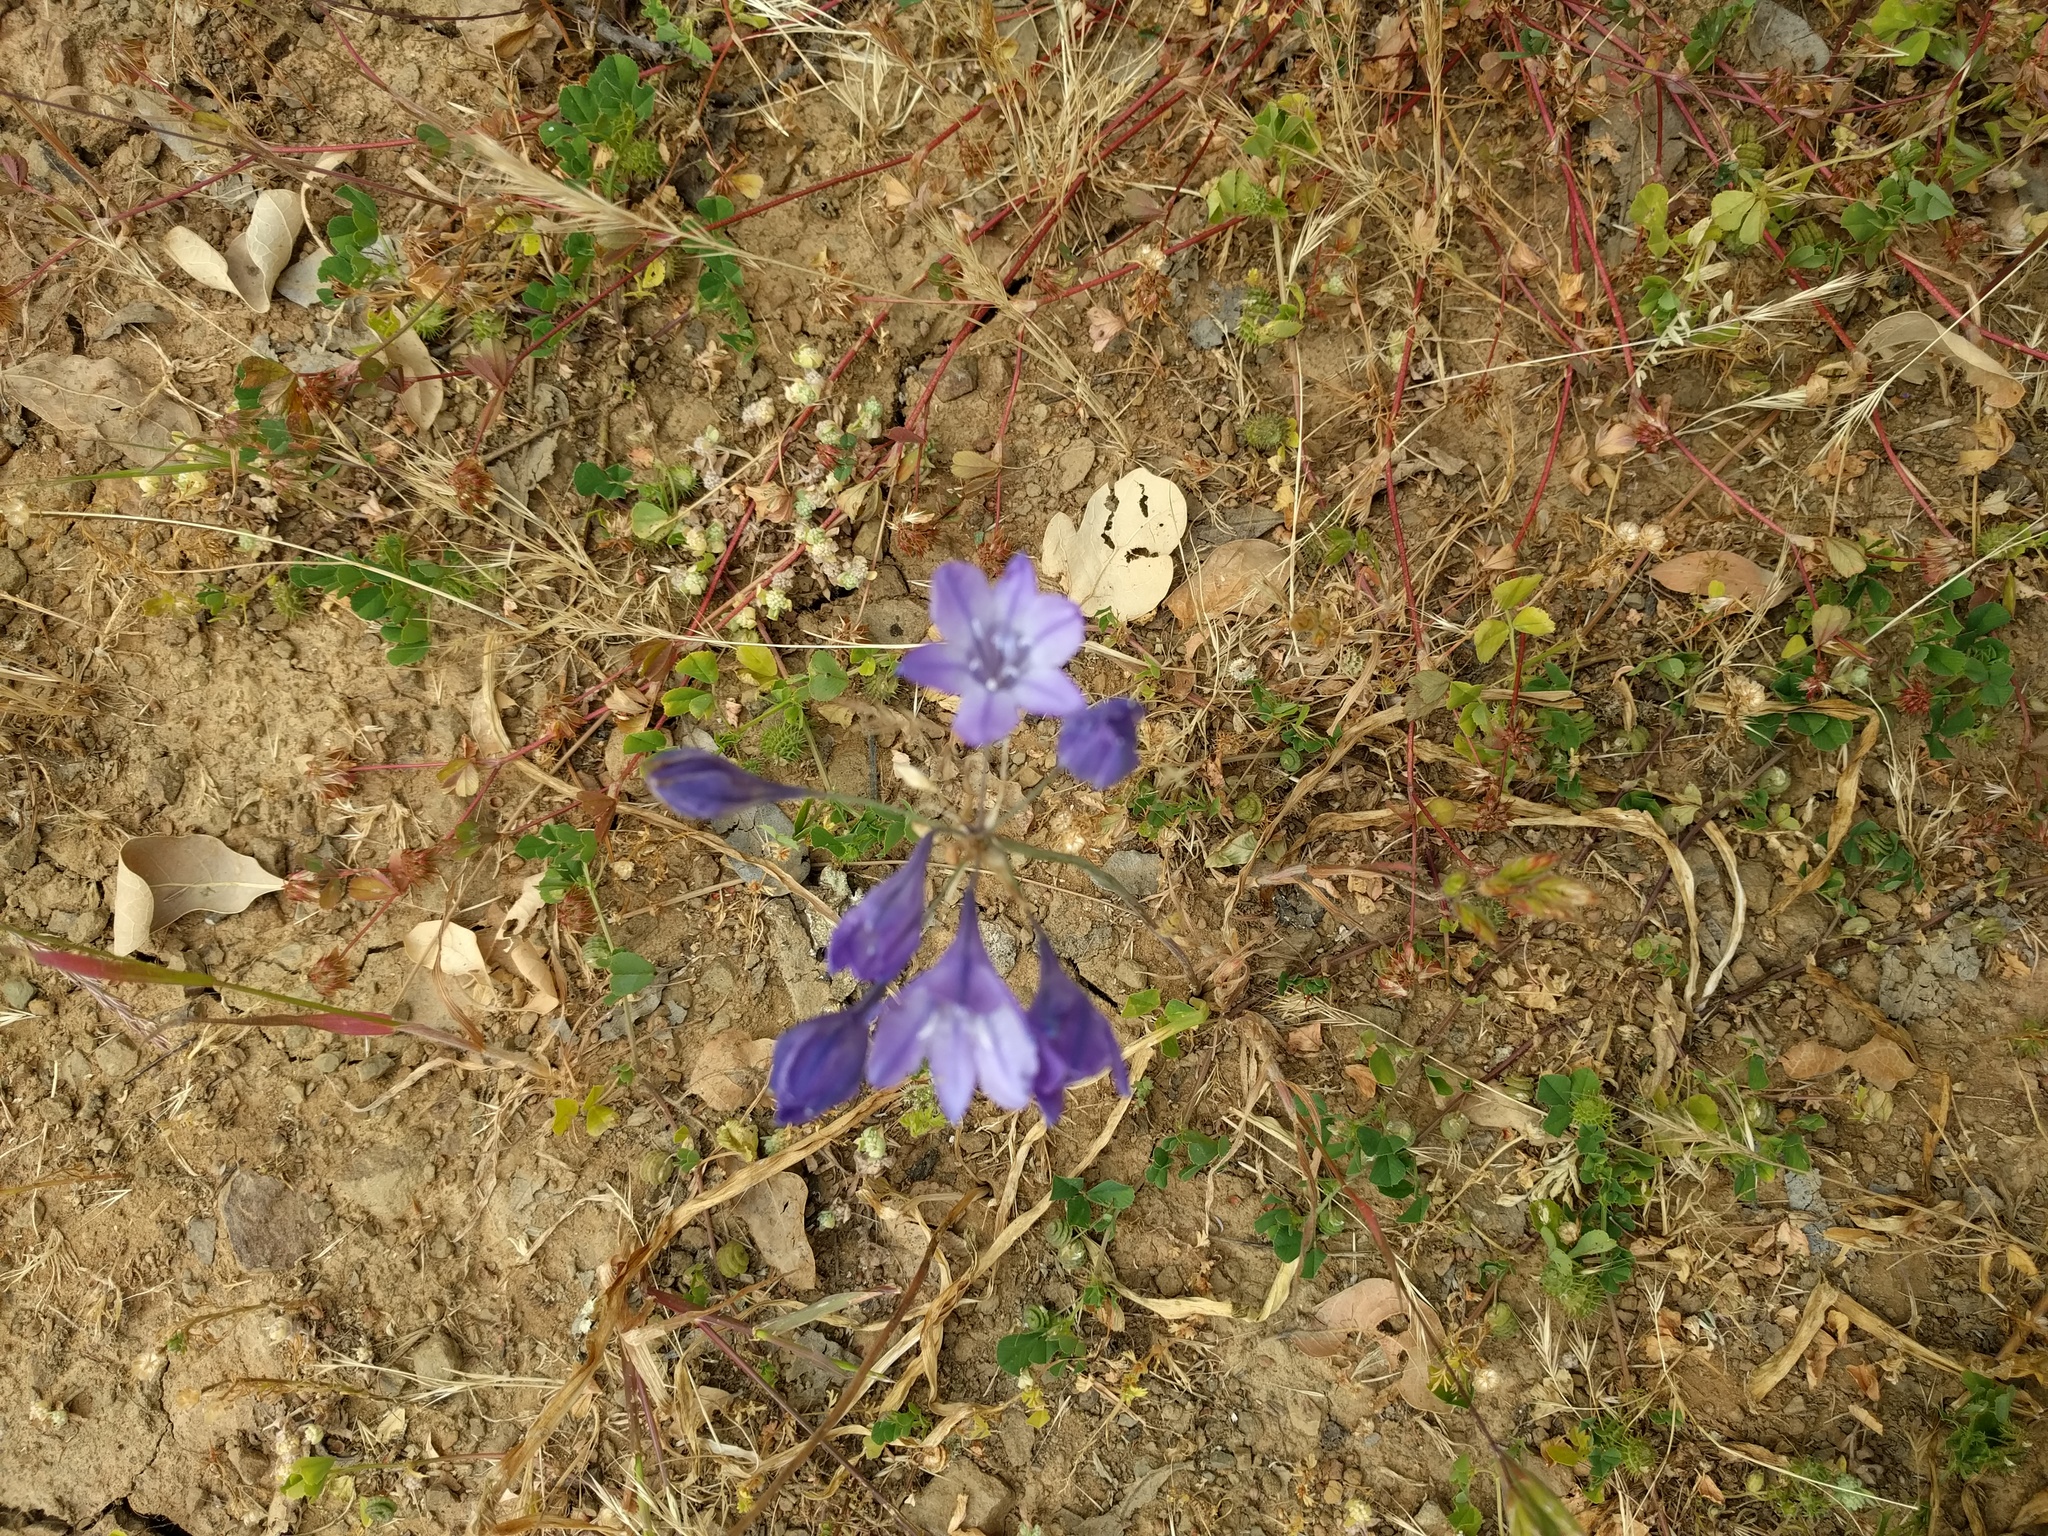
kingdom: Plantae
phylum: Tracheophyta
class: Liliopsida
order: Asparagales
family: Asparagaceae
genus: Triteleia
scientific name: Triteleia laxa
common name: Triplet-lily
